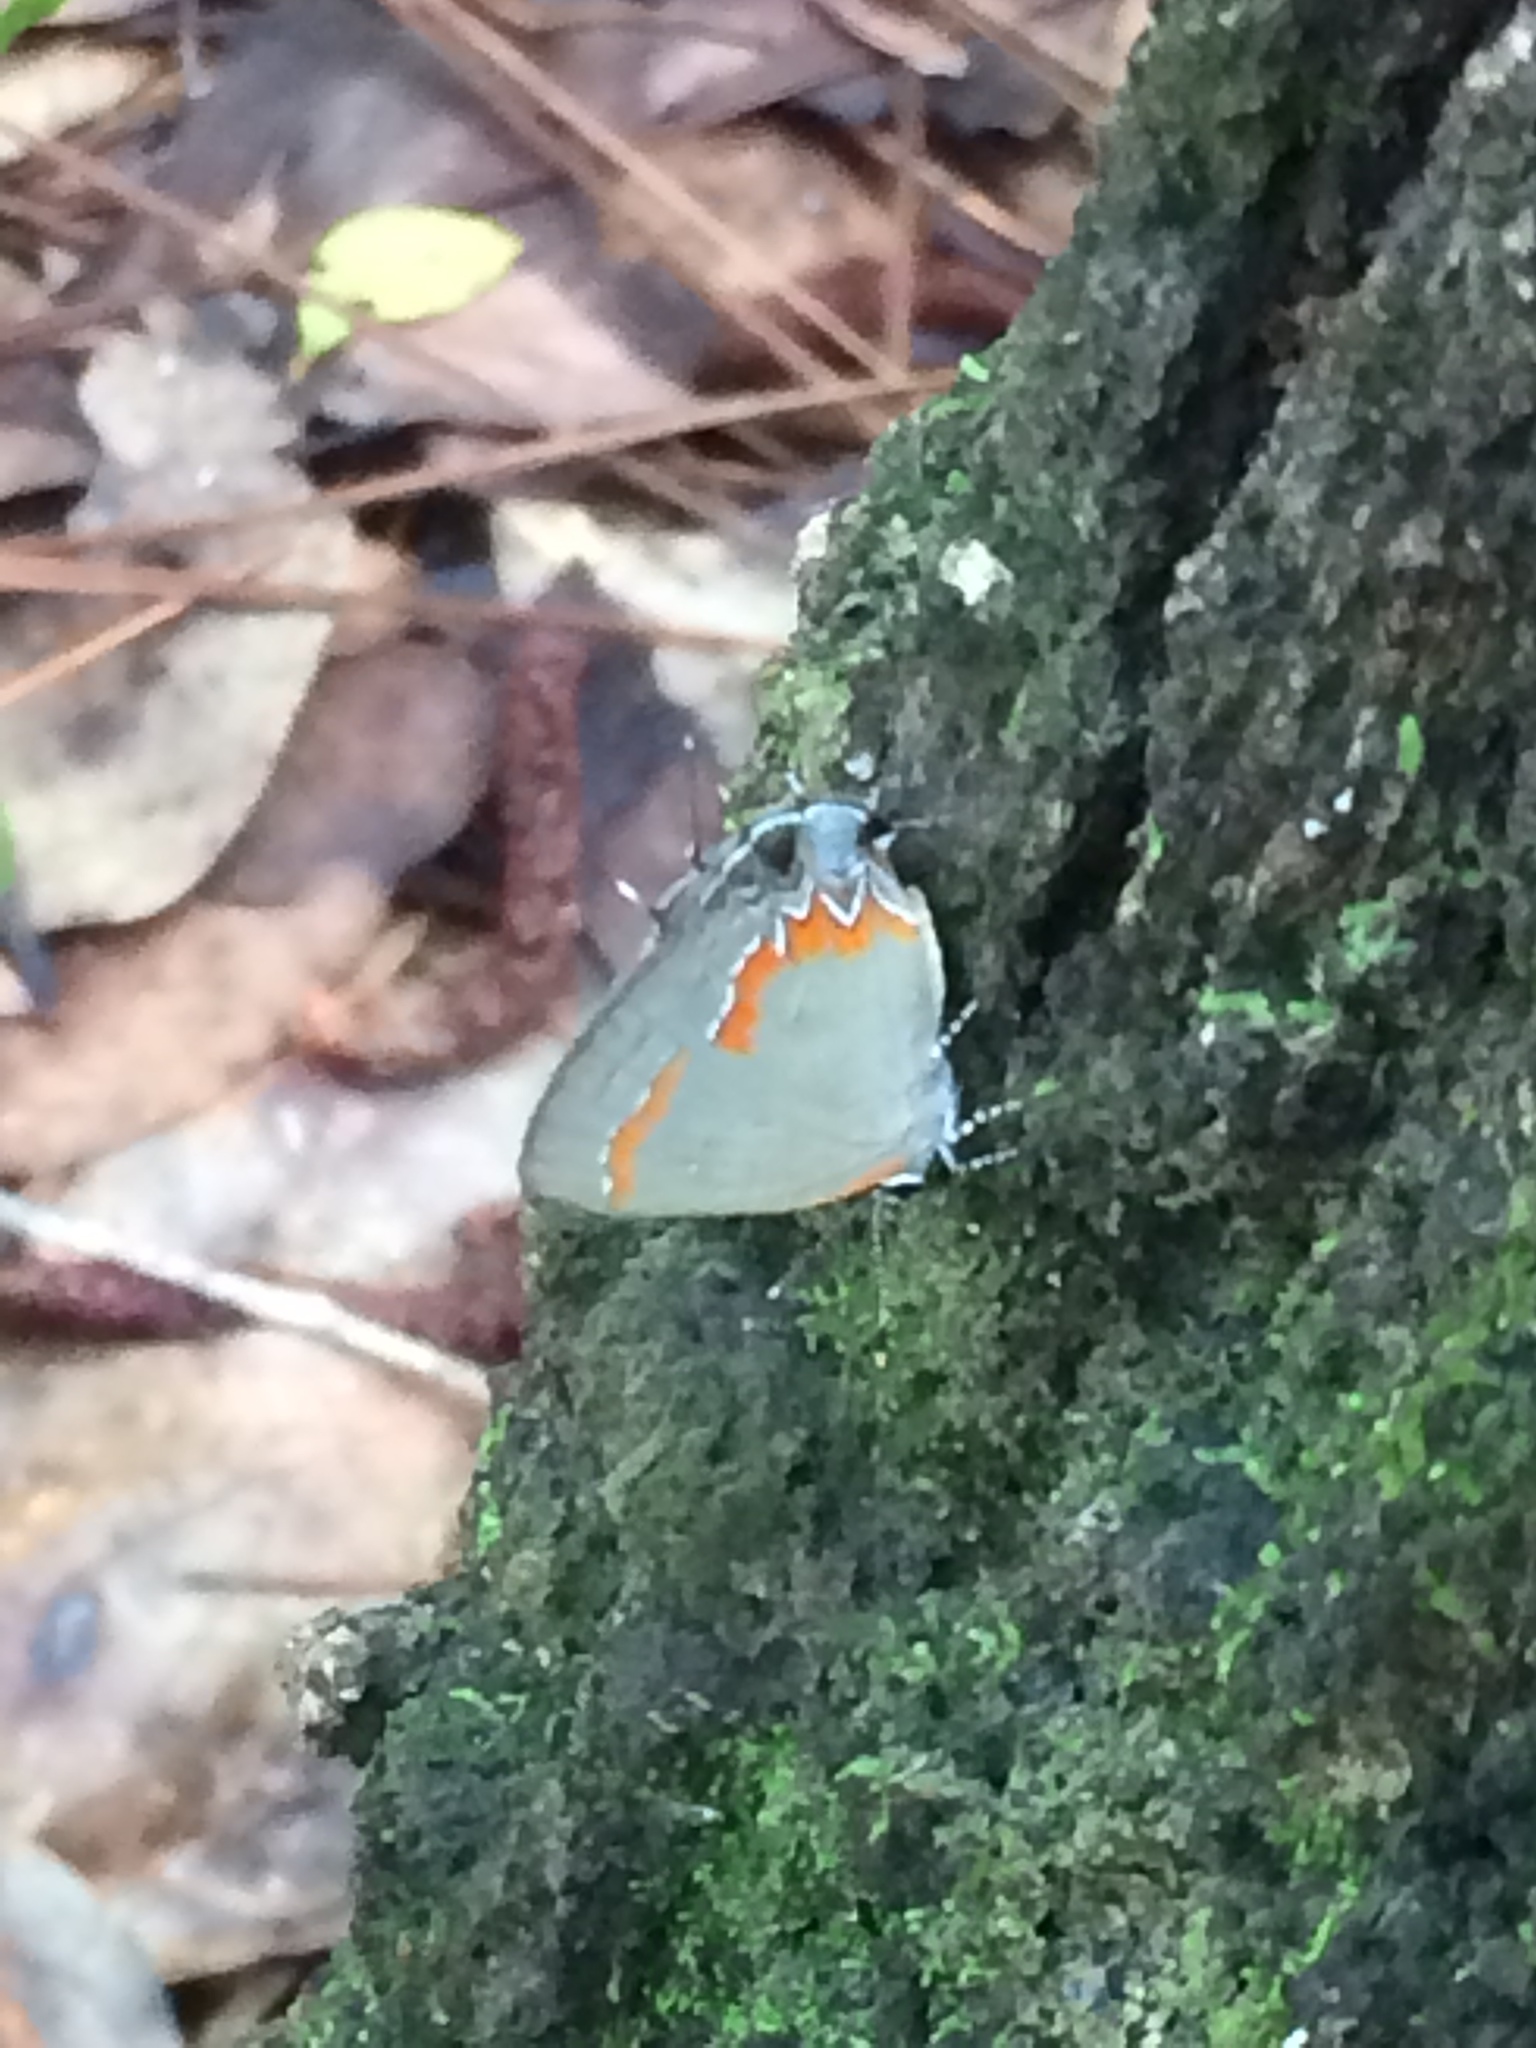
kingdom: Animalia
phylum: Arthropoda
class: Insecta
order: Lepidoptera
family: Lycaenidae
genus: Calycopis
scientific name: Calycopis cecrops
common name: Red-banded hairstreak
